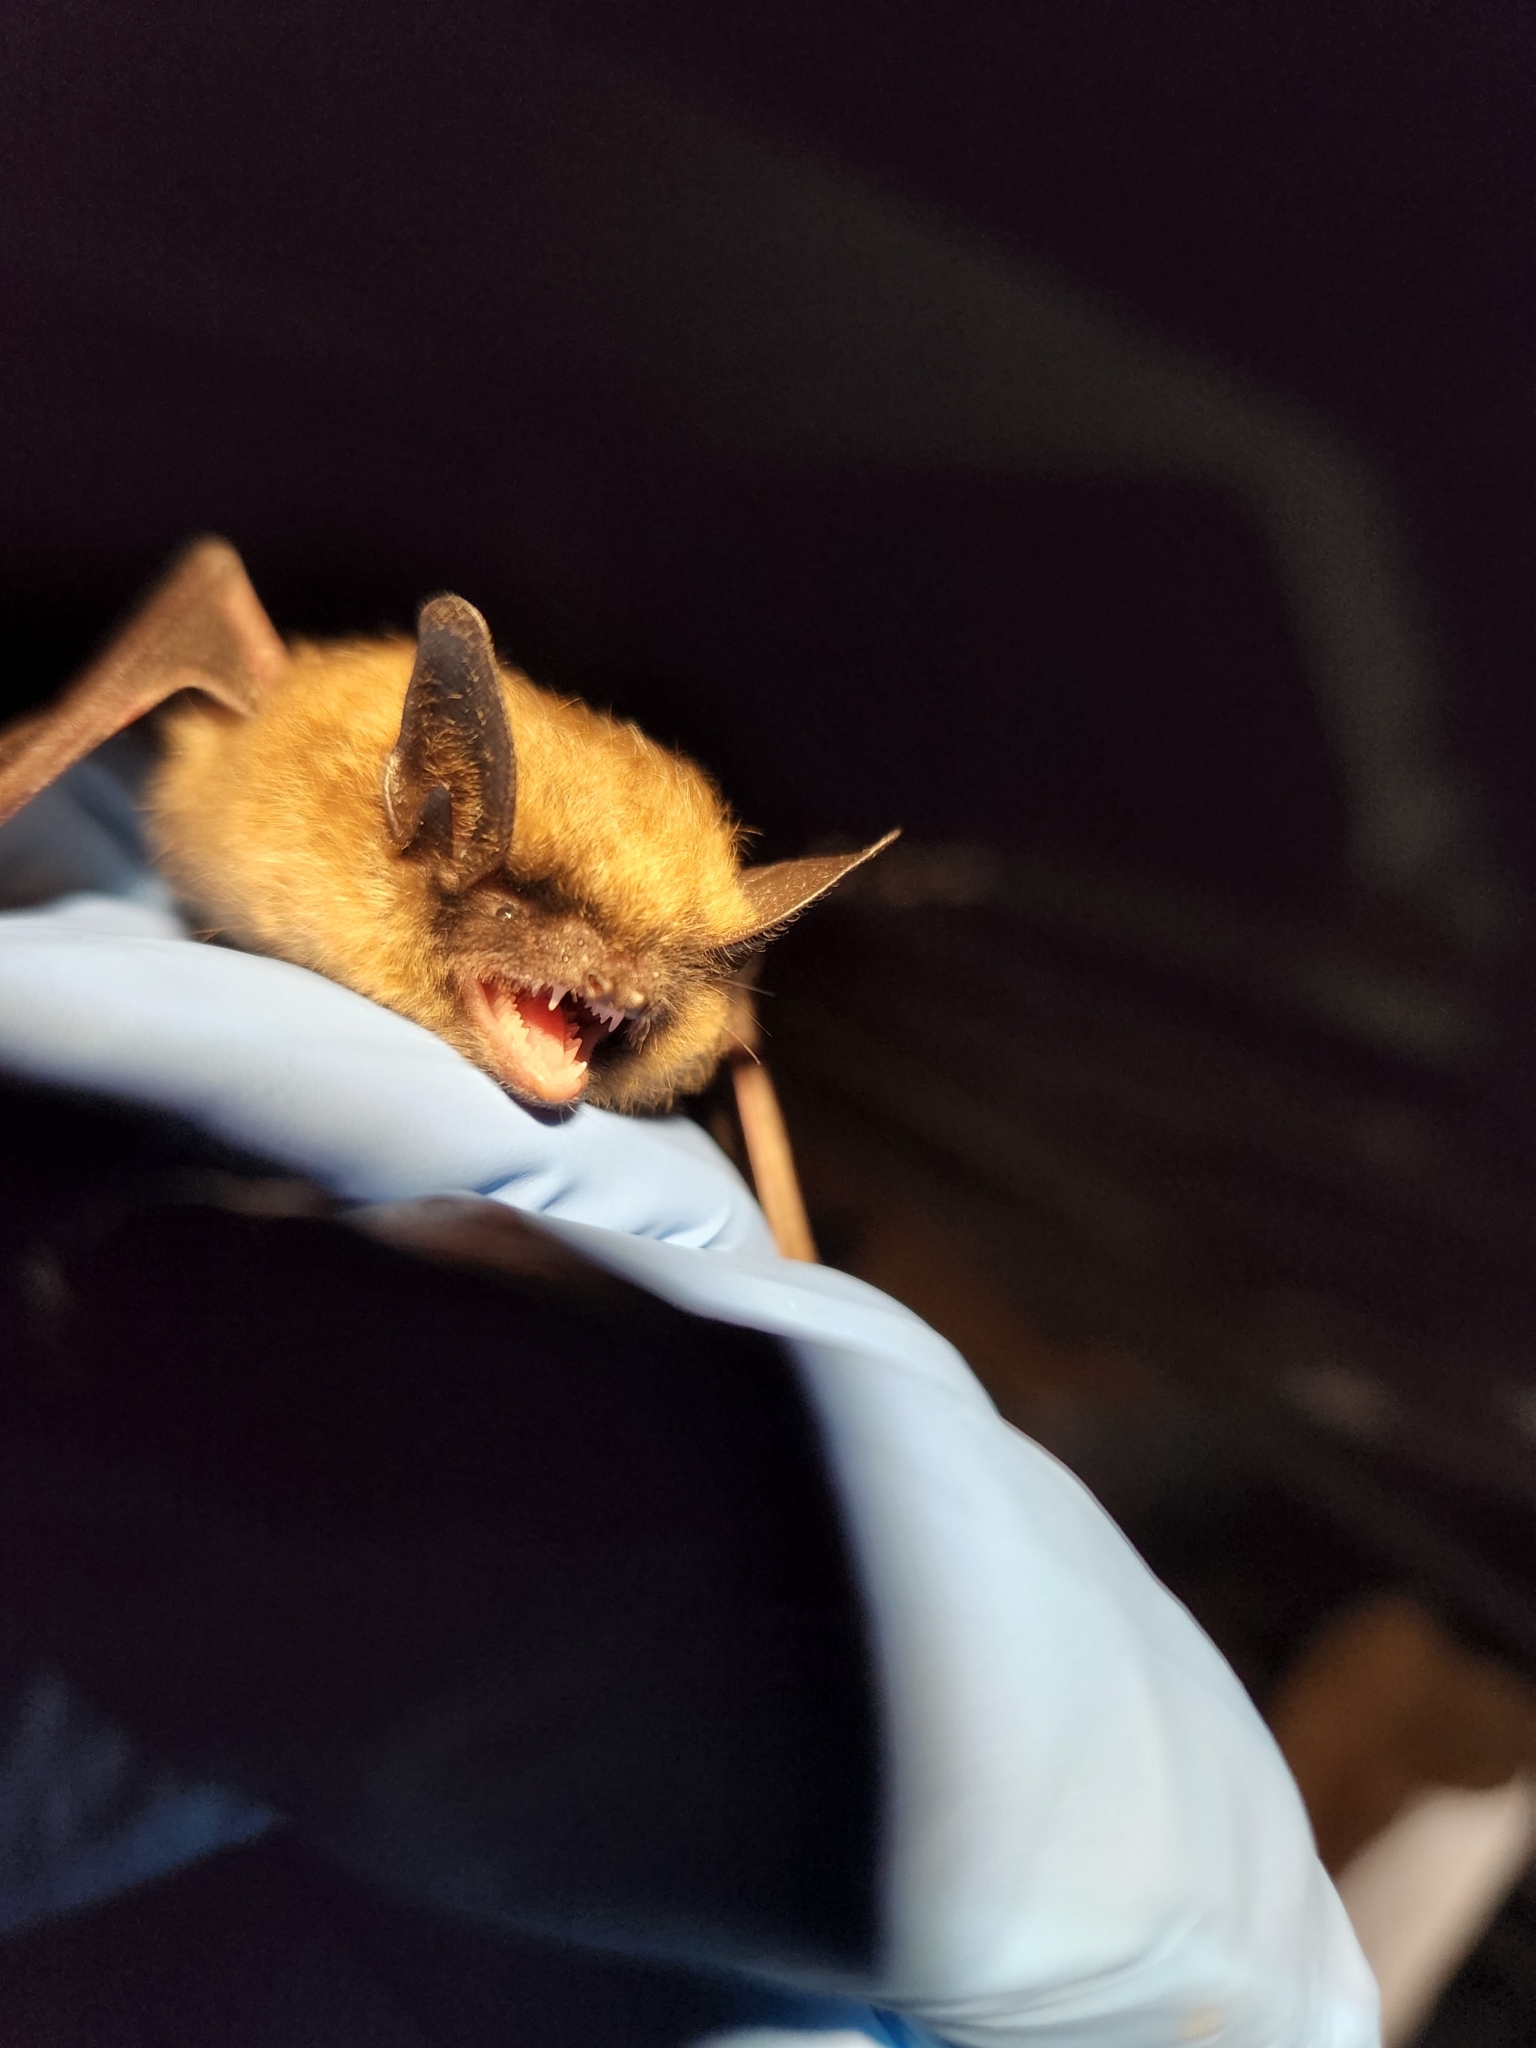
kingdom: Animalia
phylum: Chordata
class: Mammalia
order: Chiroptera
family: Vespertilionidae
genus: Myotis
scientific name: Myotis leibii
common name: Eastern small-footed myotis
